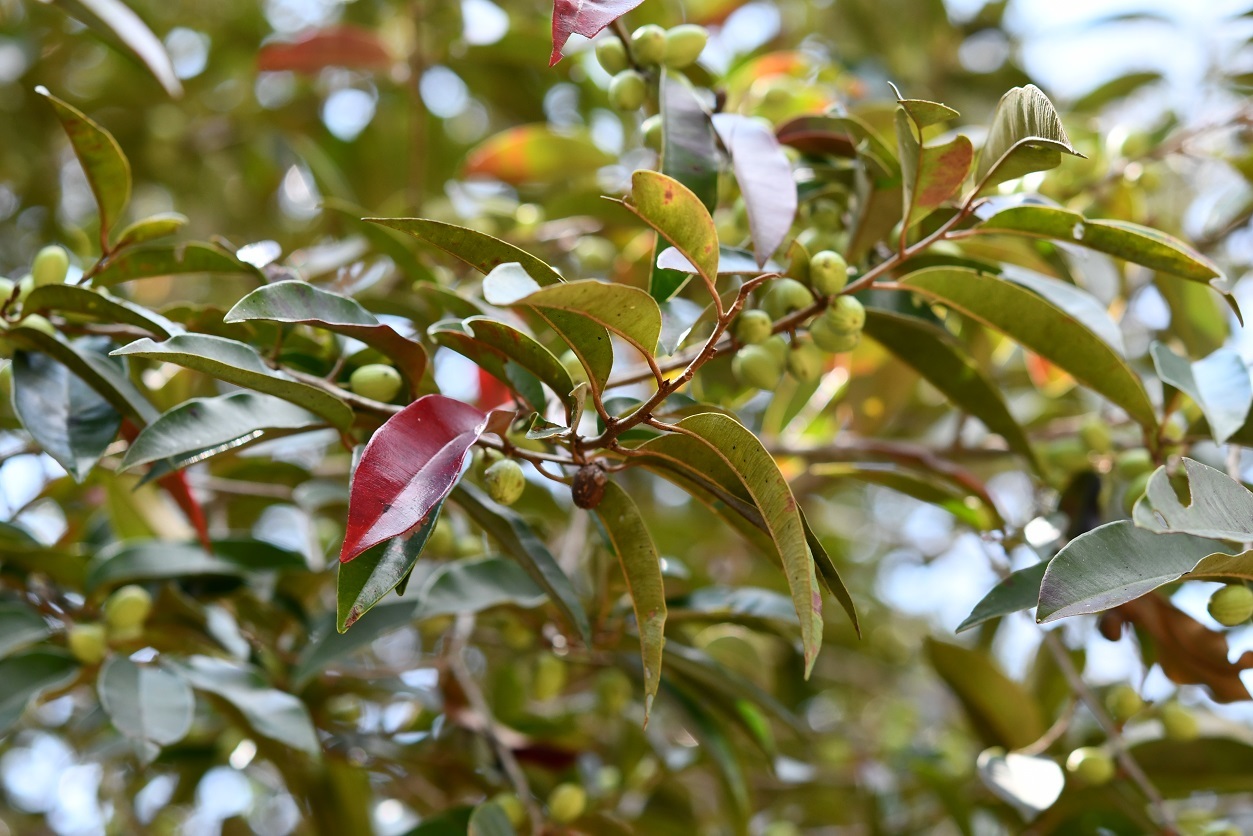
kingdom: Plantae
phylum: Tracheophyta
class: Magnoliopsida
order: Ericales
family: Sapotaceae
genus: Chrysophyllum
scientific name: Chrysophyllum mexicanum
